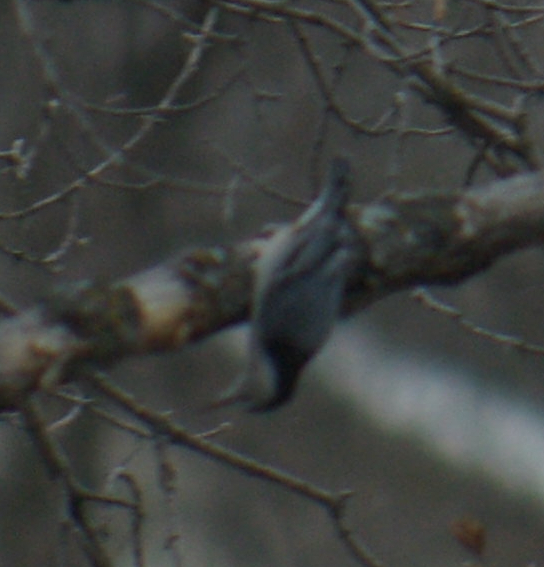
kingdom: Animalia
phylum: Chordata
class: Aves
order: Passeriformes
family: Sittidae
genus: Sitta
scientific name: Sitta carolinensis
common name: White-breasted nuthatch
